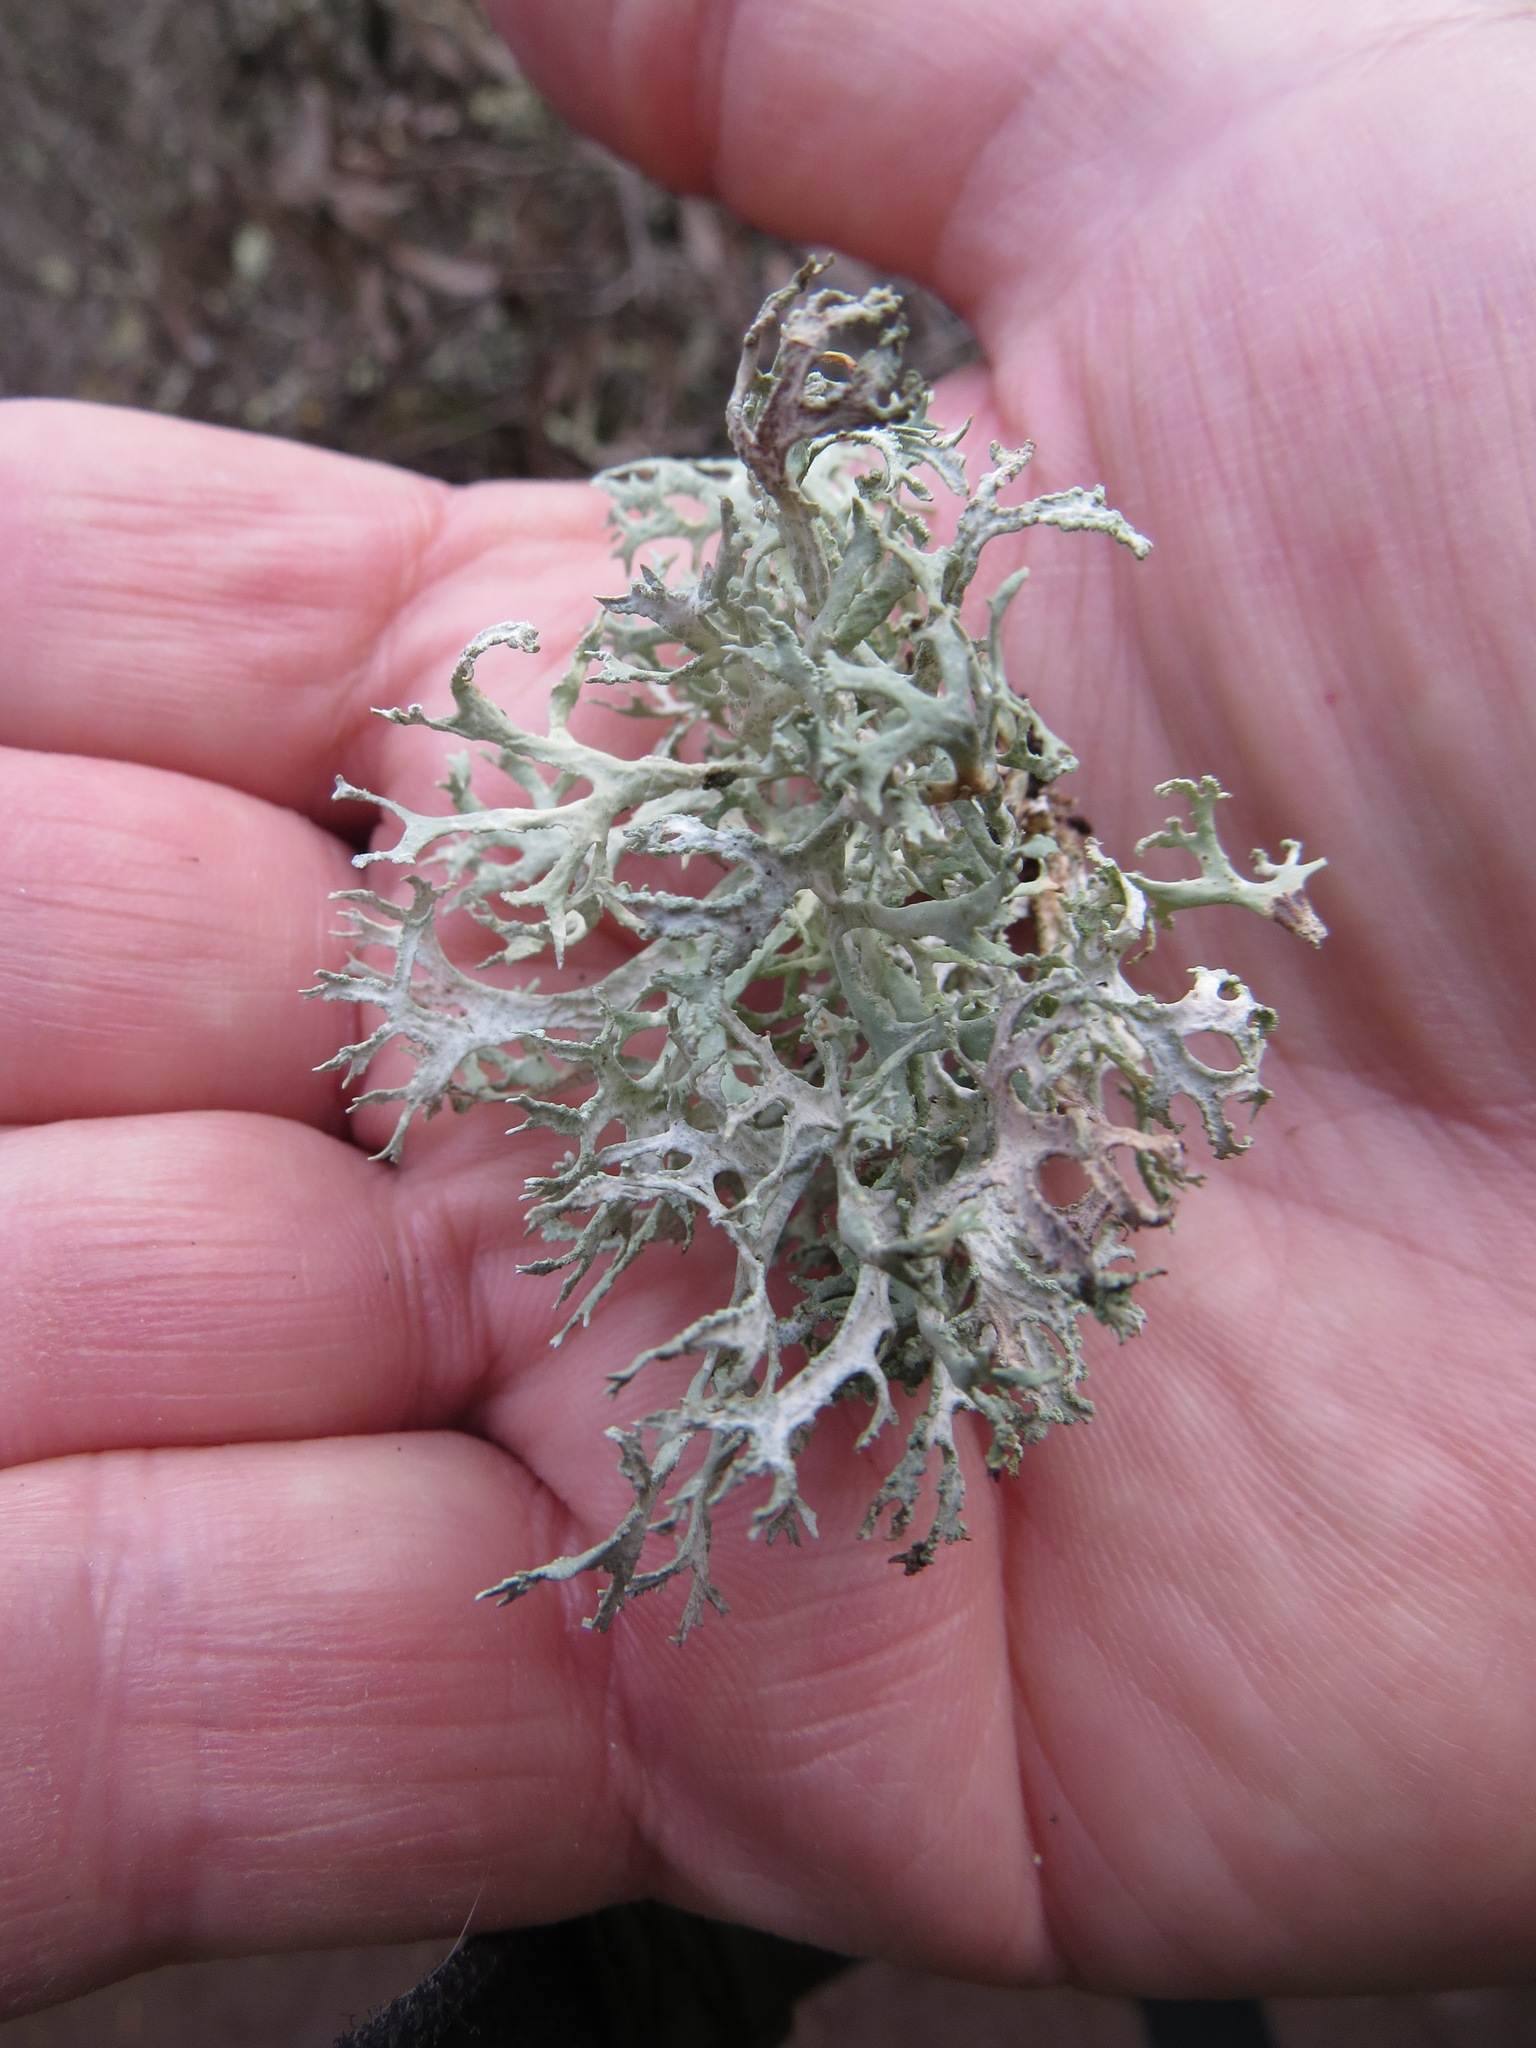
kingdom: Fungi
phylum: Ascomycota
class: Lecanoromycetes
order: Lecanorales
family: Parmeliaceae
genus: Evernia
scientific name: Evernia prunastri
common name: Oak moss
